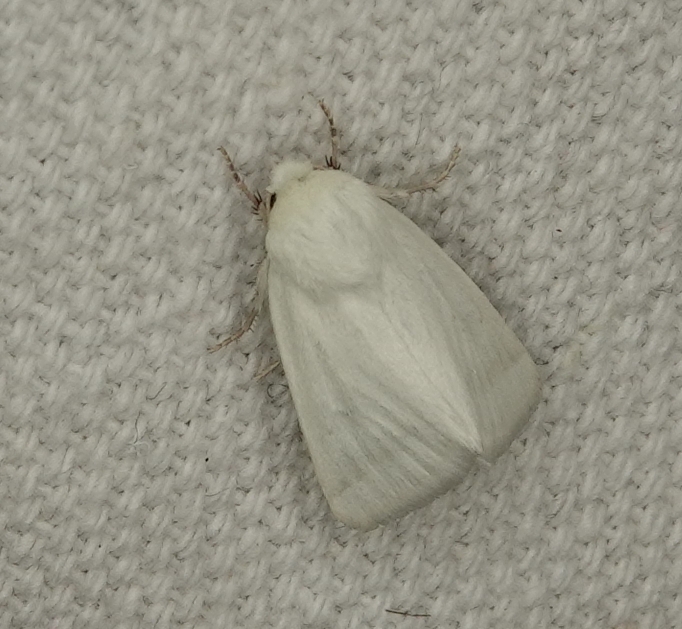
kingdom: Animalia
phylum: Arthropoda
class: Insecta
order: Lepidoptera
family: Noctuidae
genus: Schinia
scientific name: Schinia citrinellus
